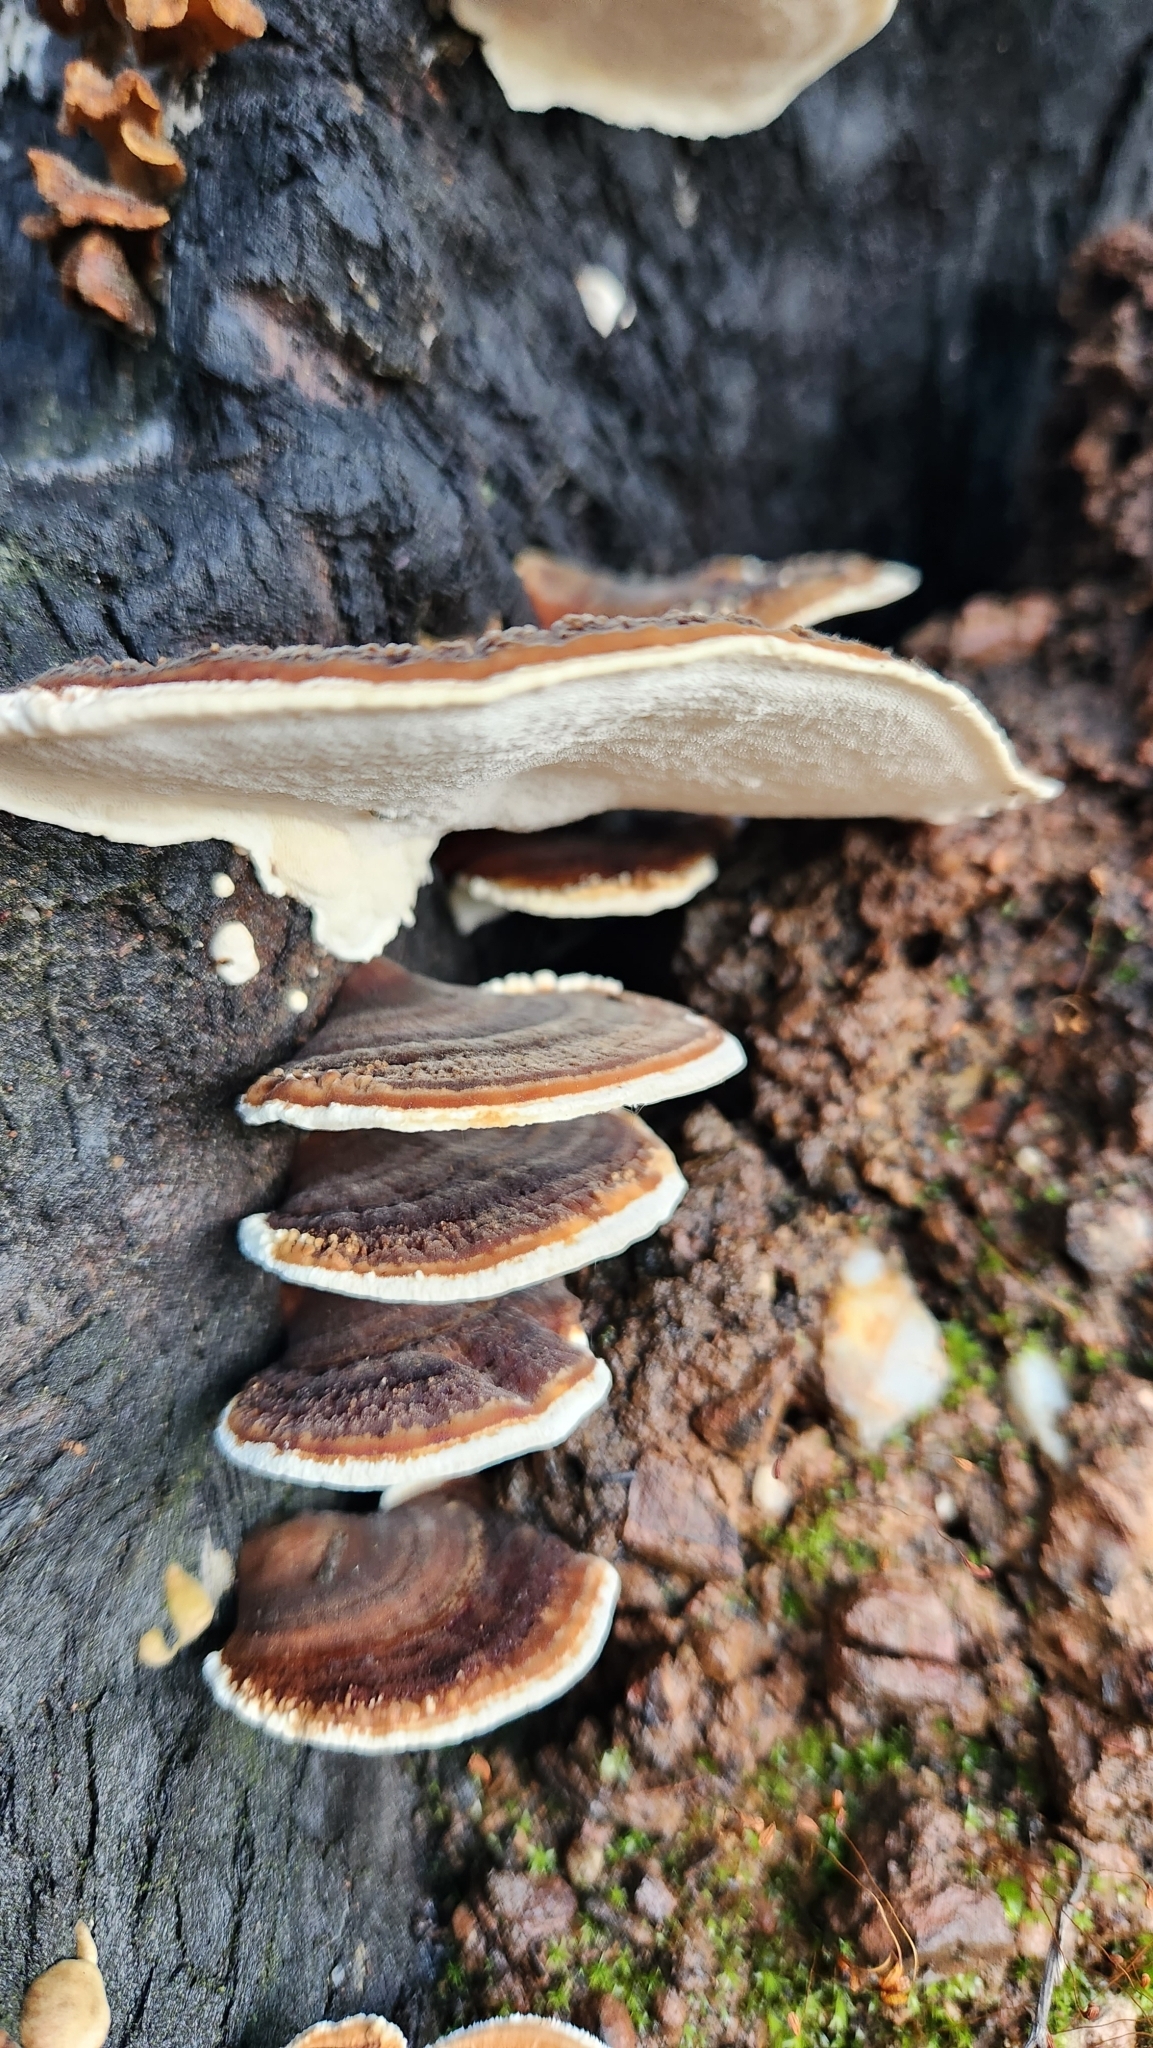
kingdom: Fungi
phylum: Basidiomycota
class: Agaricomycetes
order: Polyporales
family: Polyporaceae
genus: Trametes
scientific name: Trametes versicolor
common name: Turkeytail
